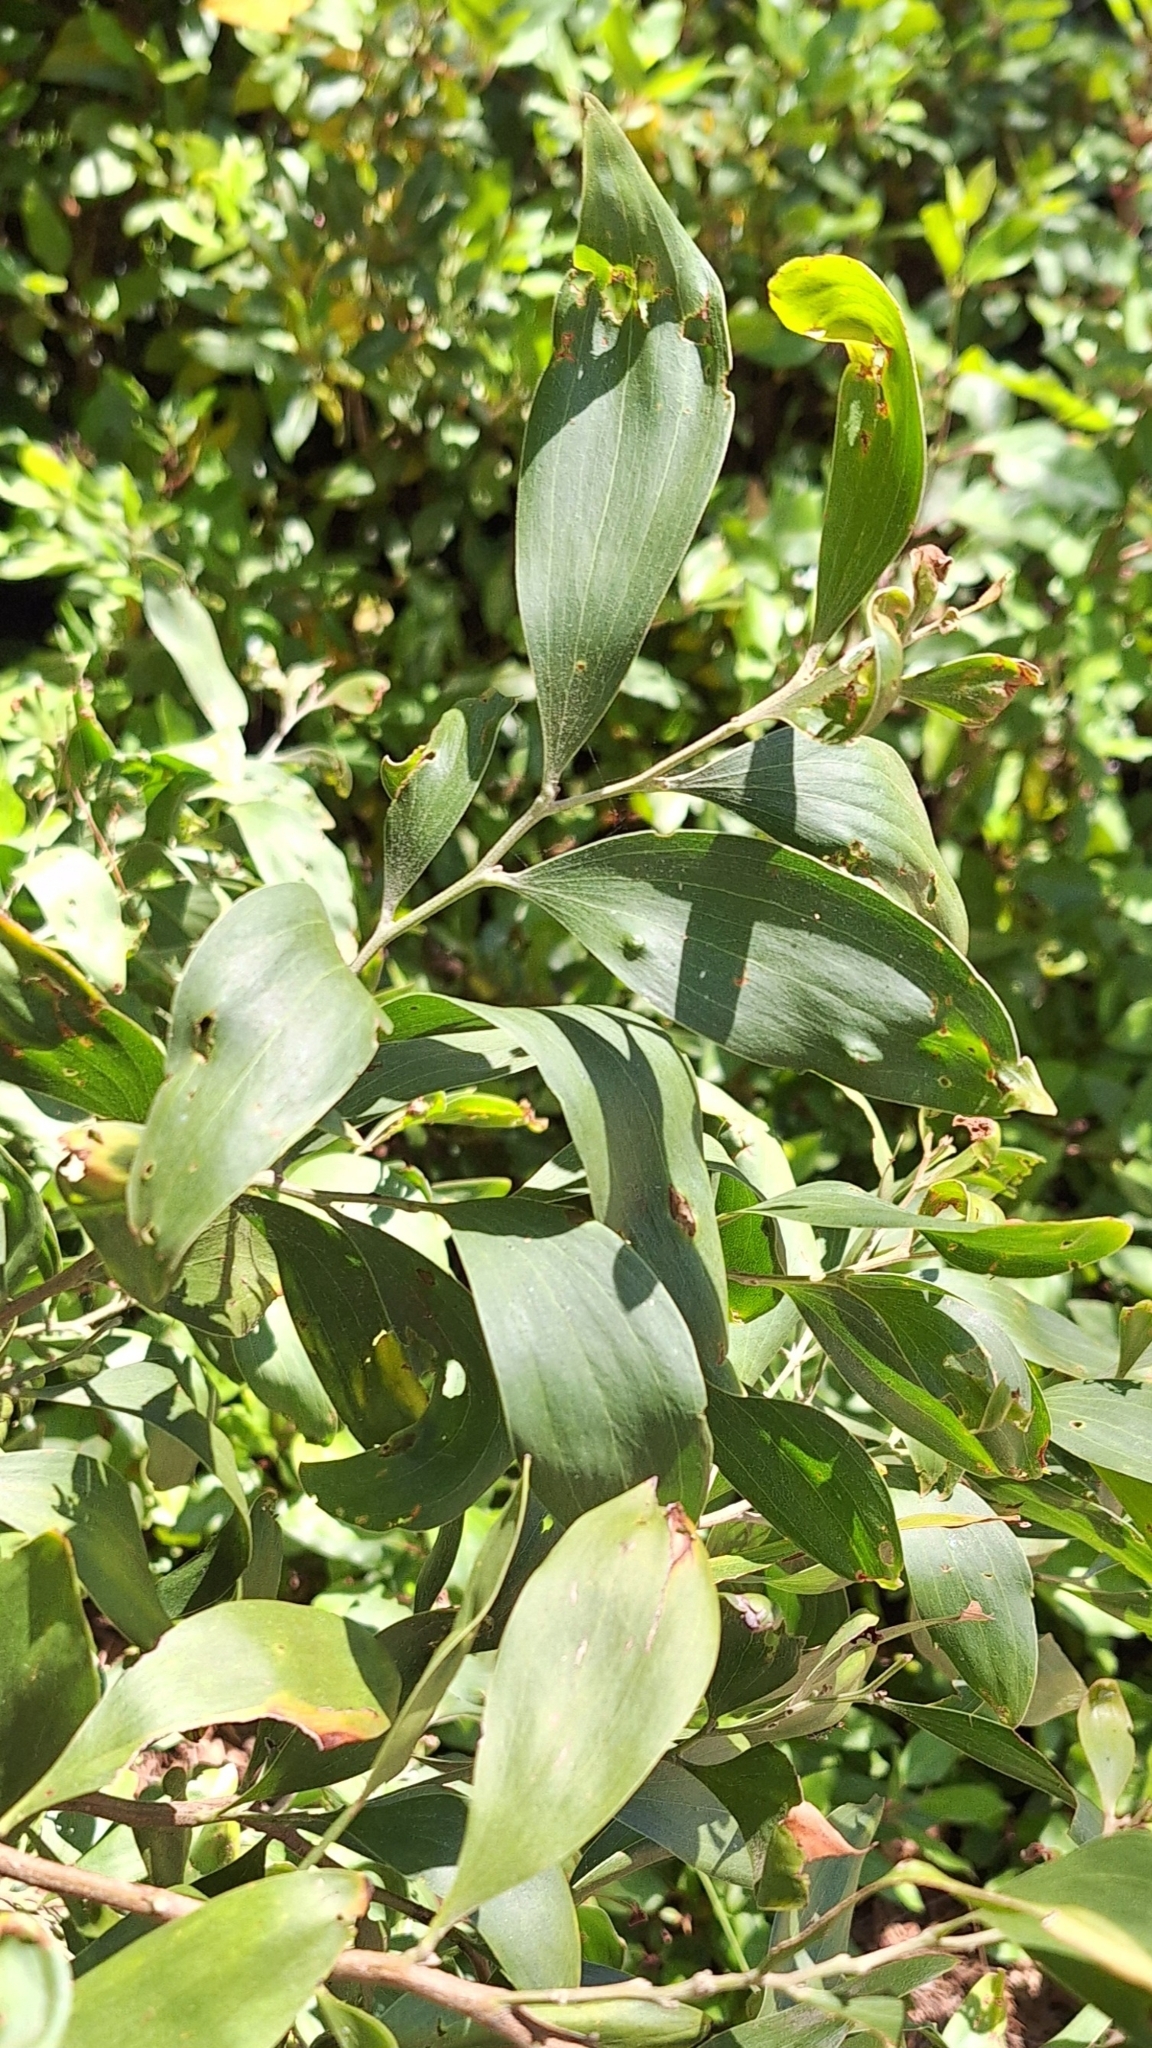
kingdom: Plantae
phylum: Tracheophyta
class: Magnoliopsida
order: Fabales
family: Fabaceae
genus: Acacia
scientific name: Acacia melanoxylon
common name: Blackwood
